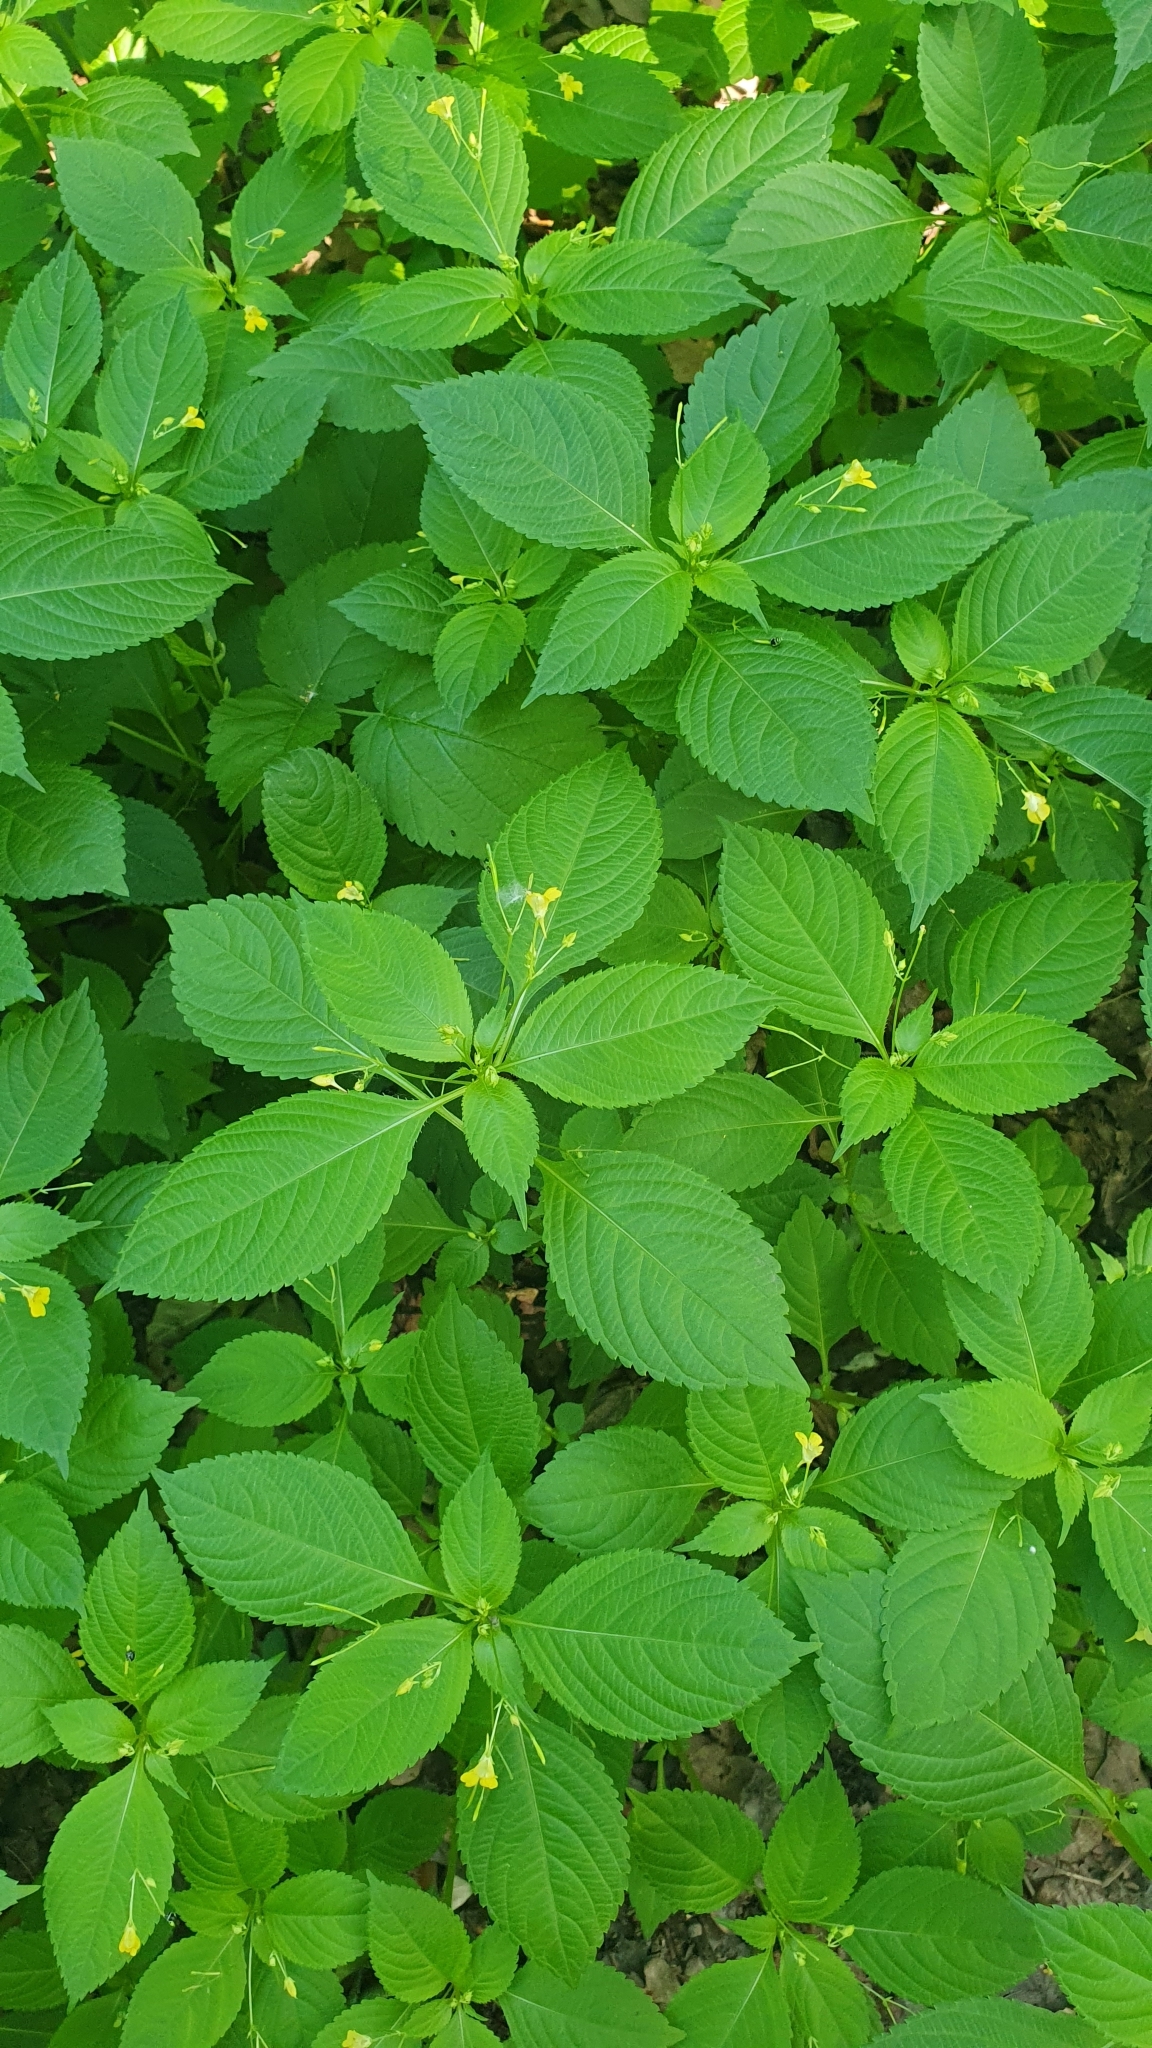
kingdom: Plantae
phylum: Tracheophyta
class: Magnoliopsida
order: Ericales
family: Balsaminaceae
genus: Impatiens
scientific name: Impatiens parviflora
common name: Small balsam
